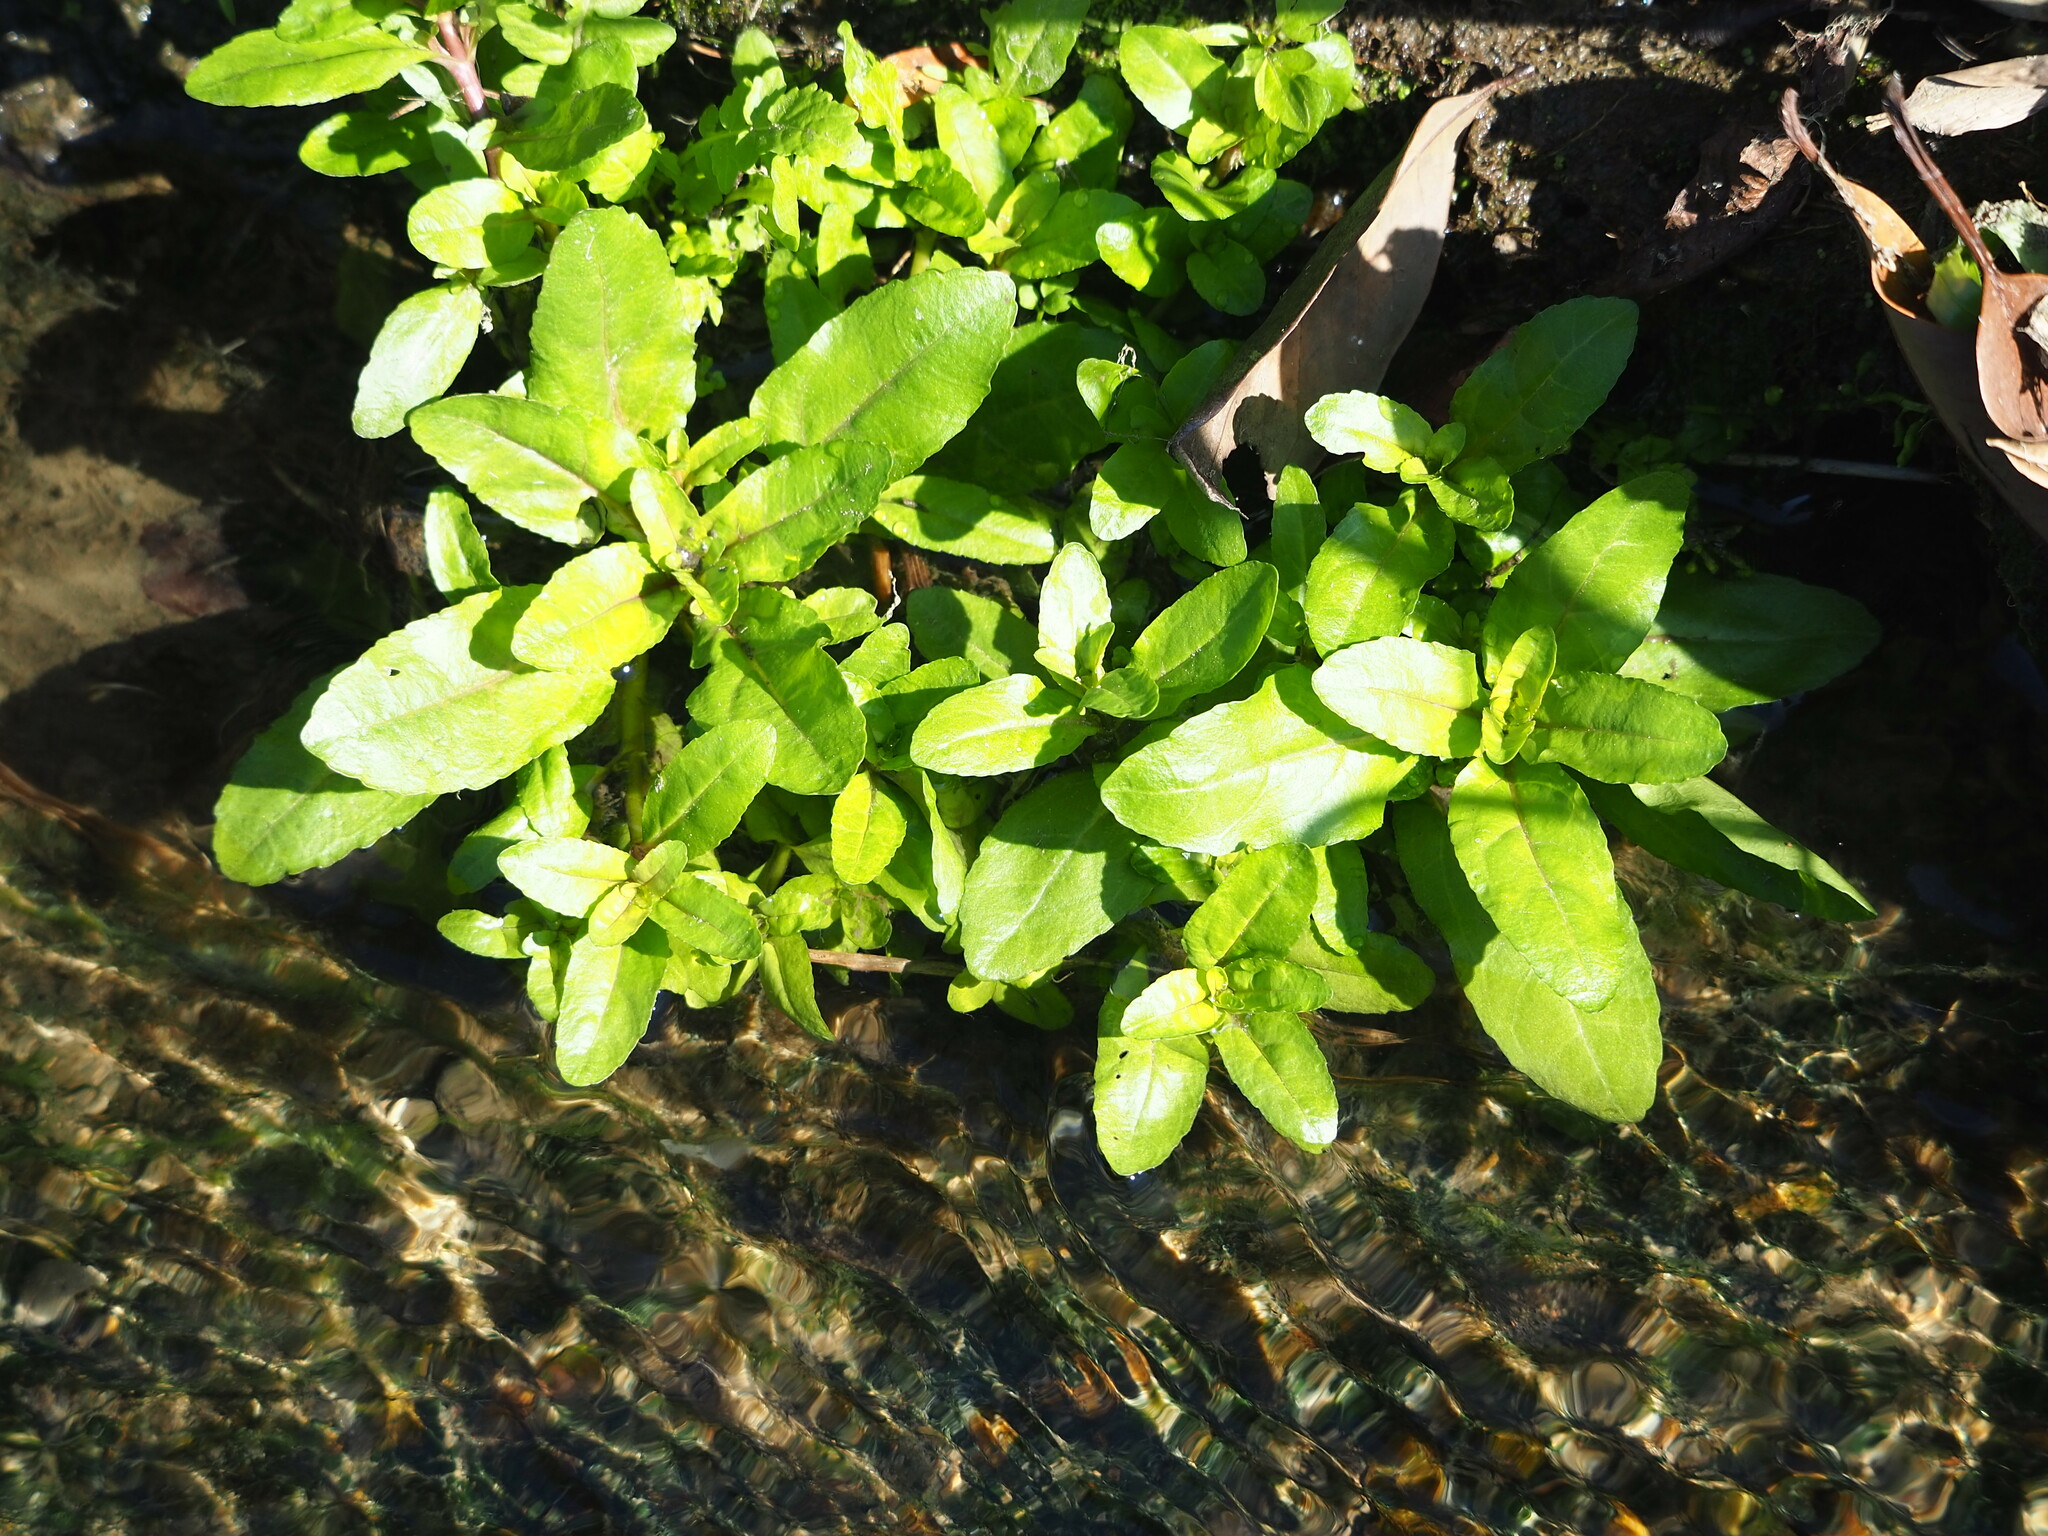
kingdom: Plantae
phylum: Tracheophyta
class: Magnoliopsida
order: Lamiales
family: Plantaginaceae
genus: Veronica
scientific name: Veronica undulata
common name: Undulate speedwell
